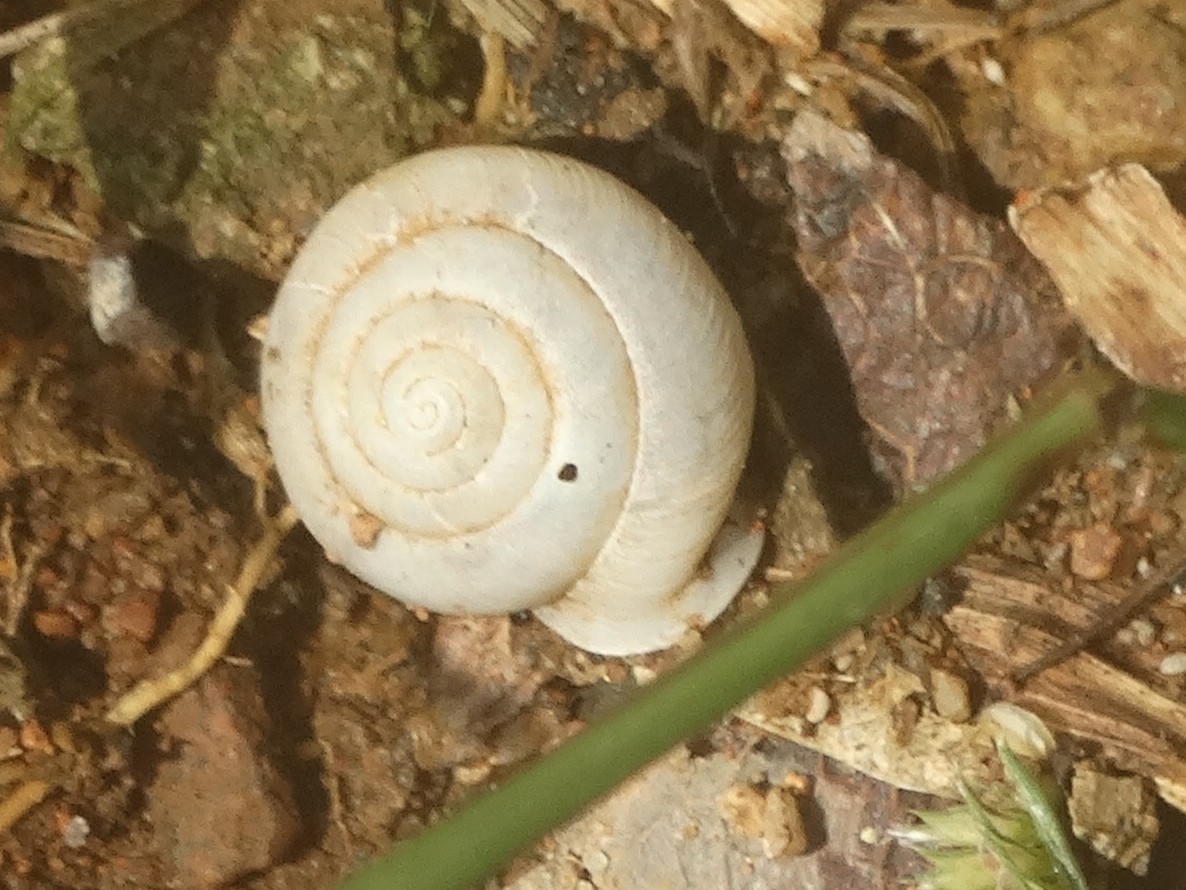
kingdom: Animalia
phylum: Mollusca
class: Gastropoda
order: Stylommatophora
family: Polygyridae
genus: Linisa
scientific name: Linisa
